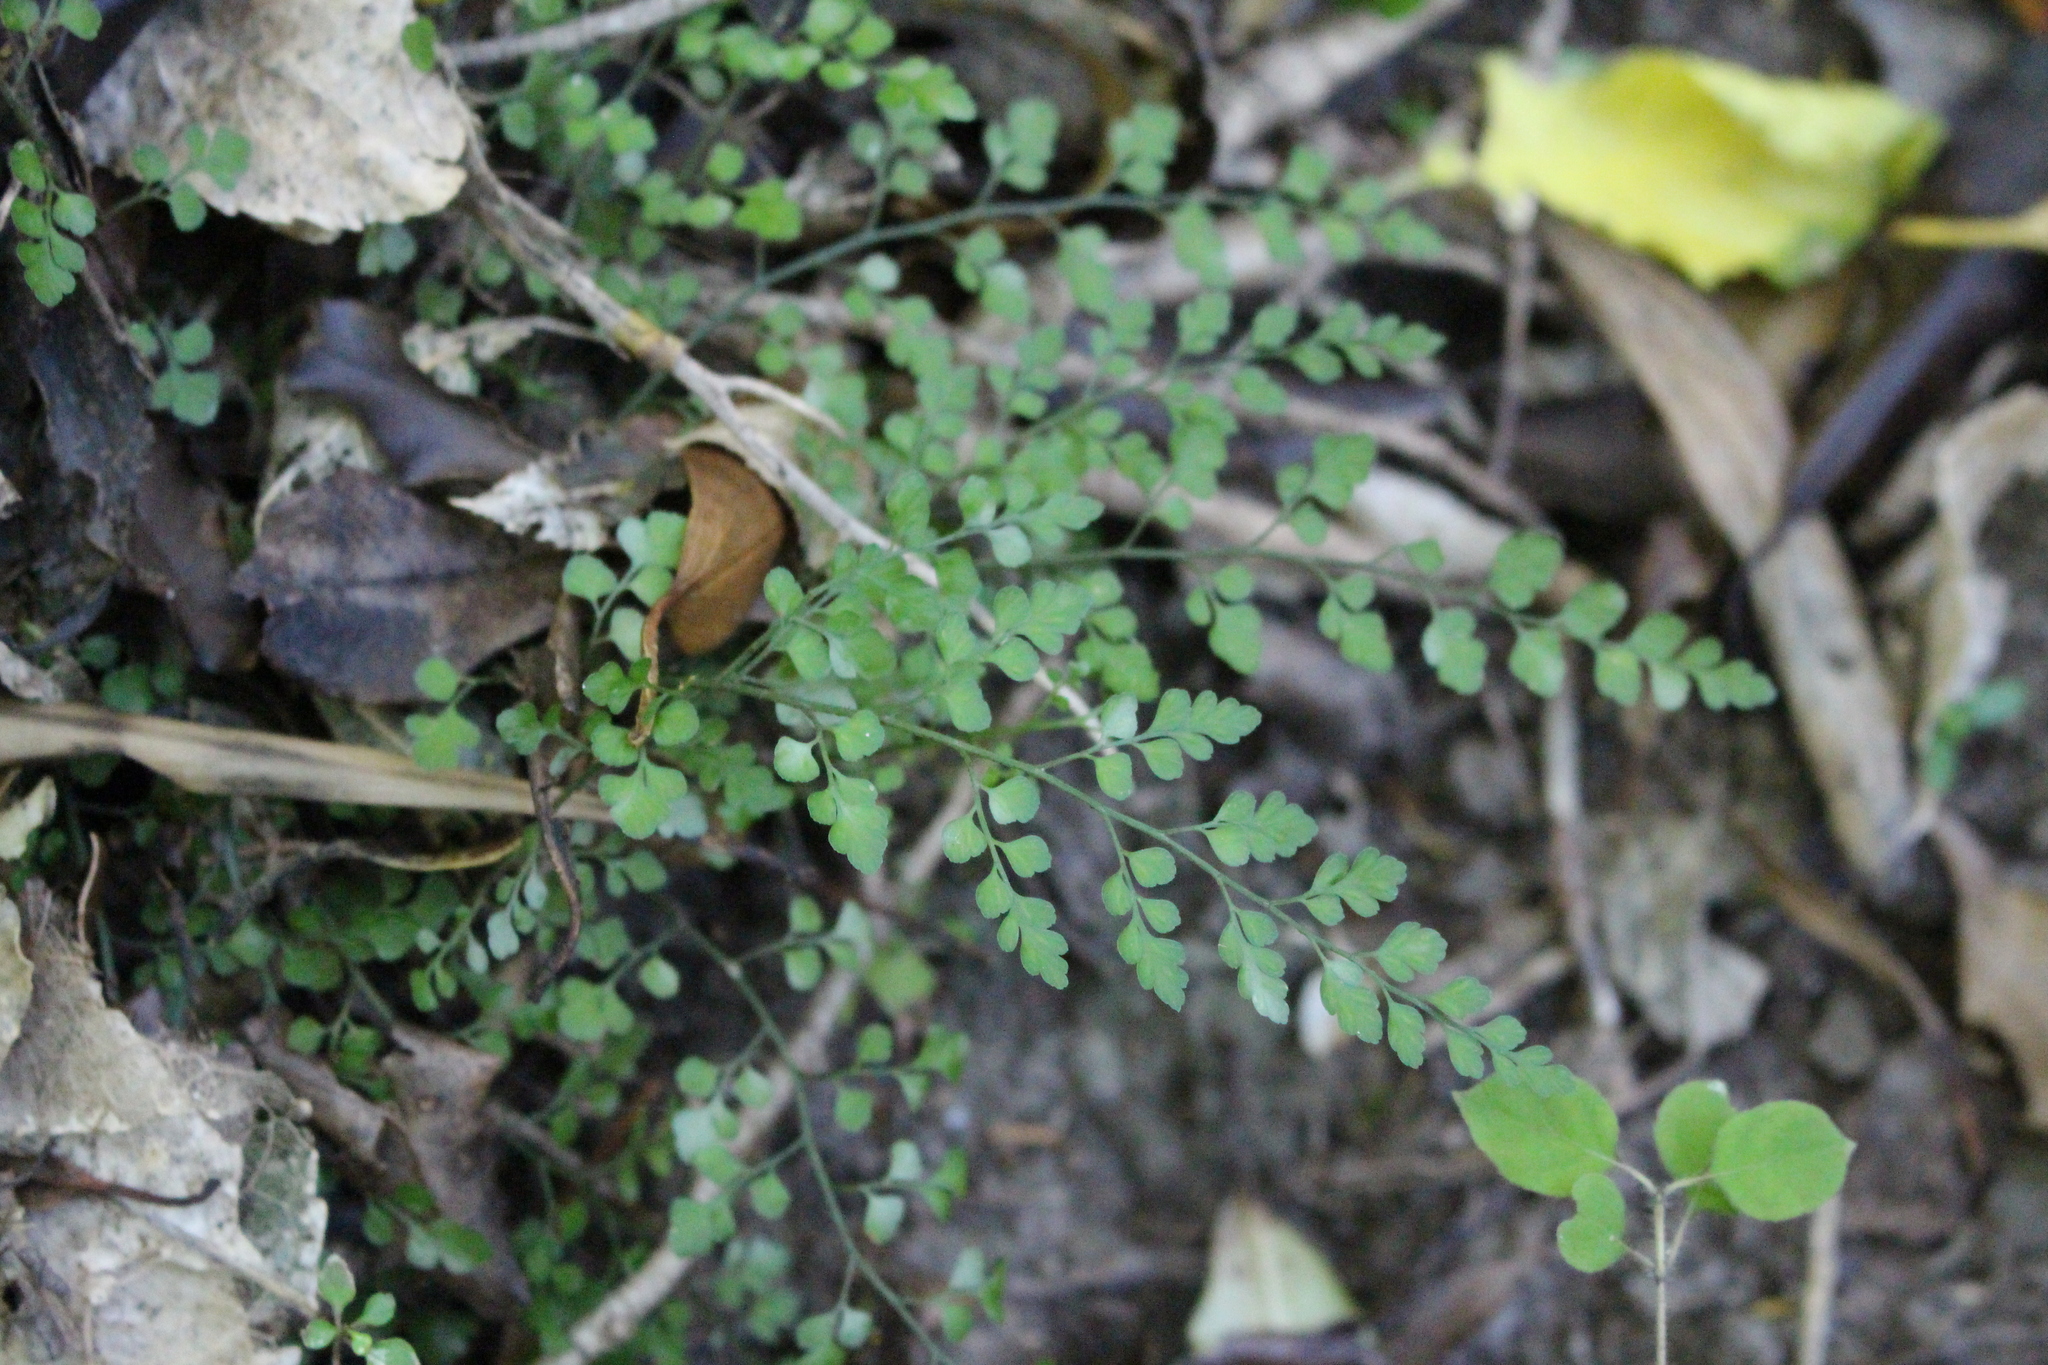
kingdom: Plantae
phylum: Tracheophyta
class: Polypodiopsida
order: Polypodiales
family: Aspleniaceae
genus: Asplenium
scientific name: Asplenium hookerianum
